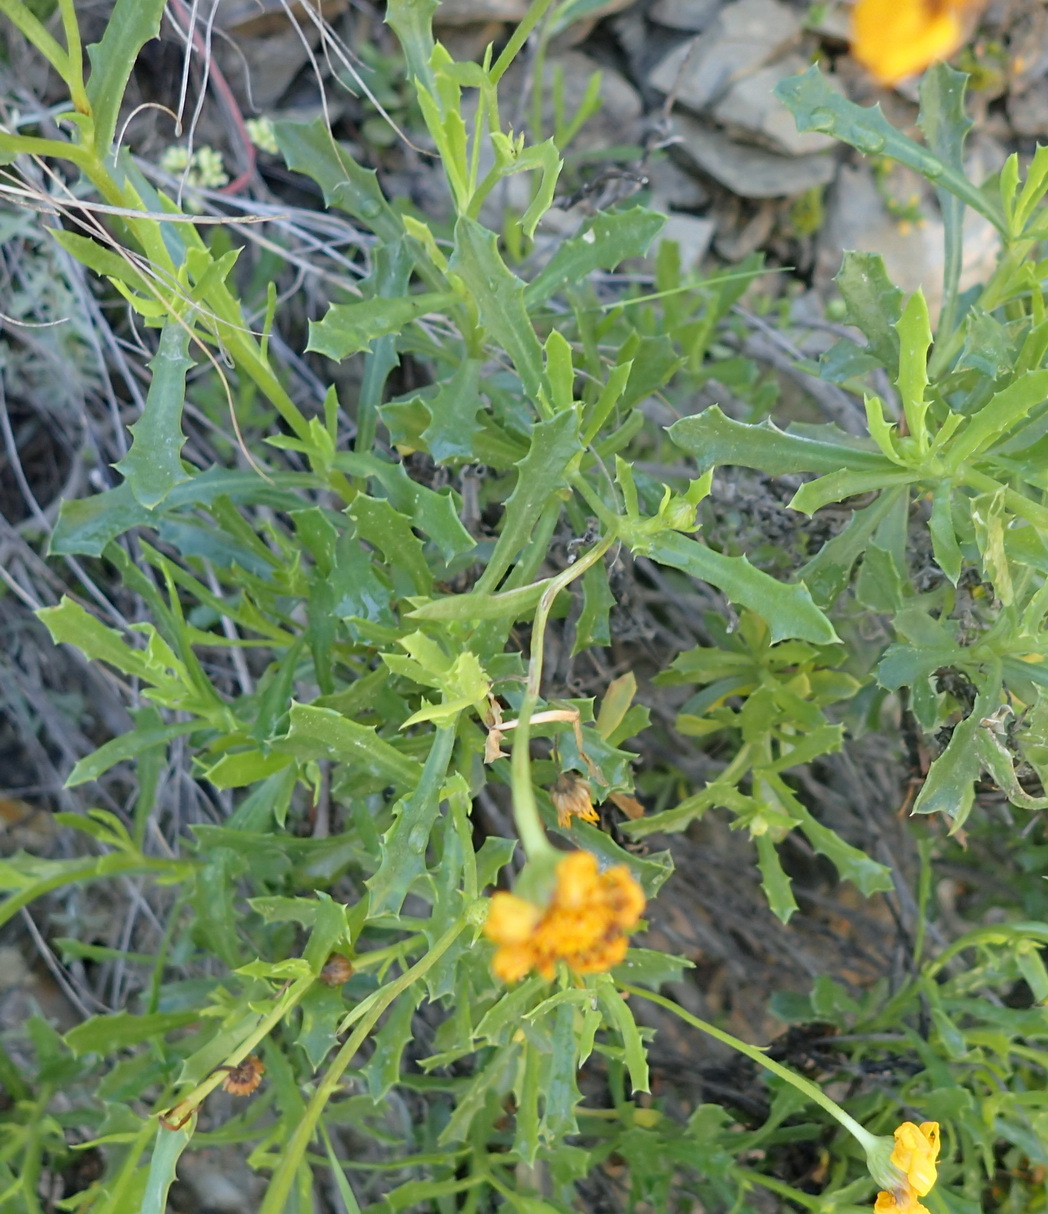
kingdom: Plantae
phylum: Tracheophyta
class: Magnoliopsida
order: Asterales
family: Asteraceae
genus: Osteospermum
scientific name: Osteospermum scariosum
